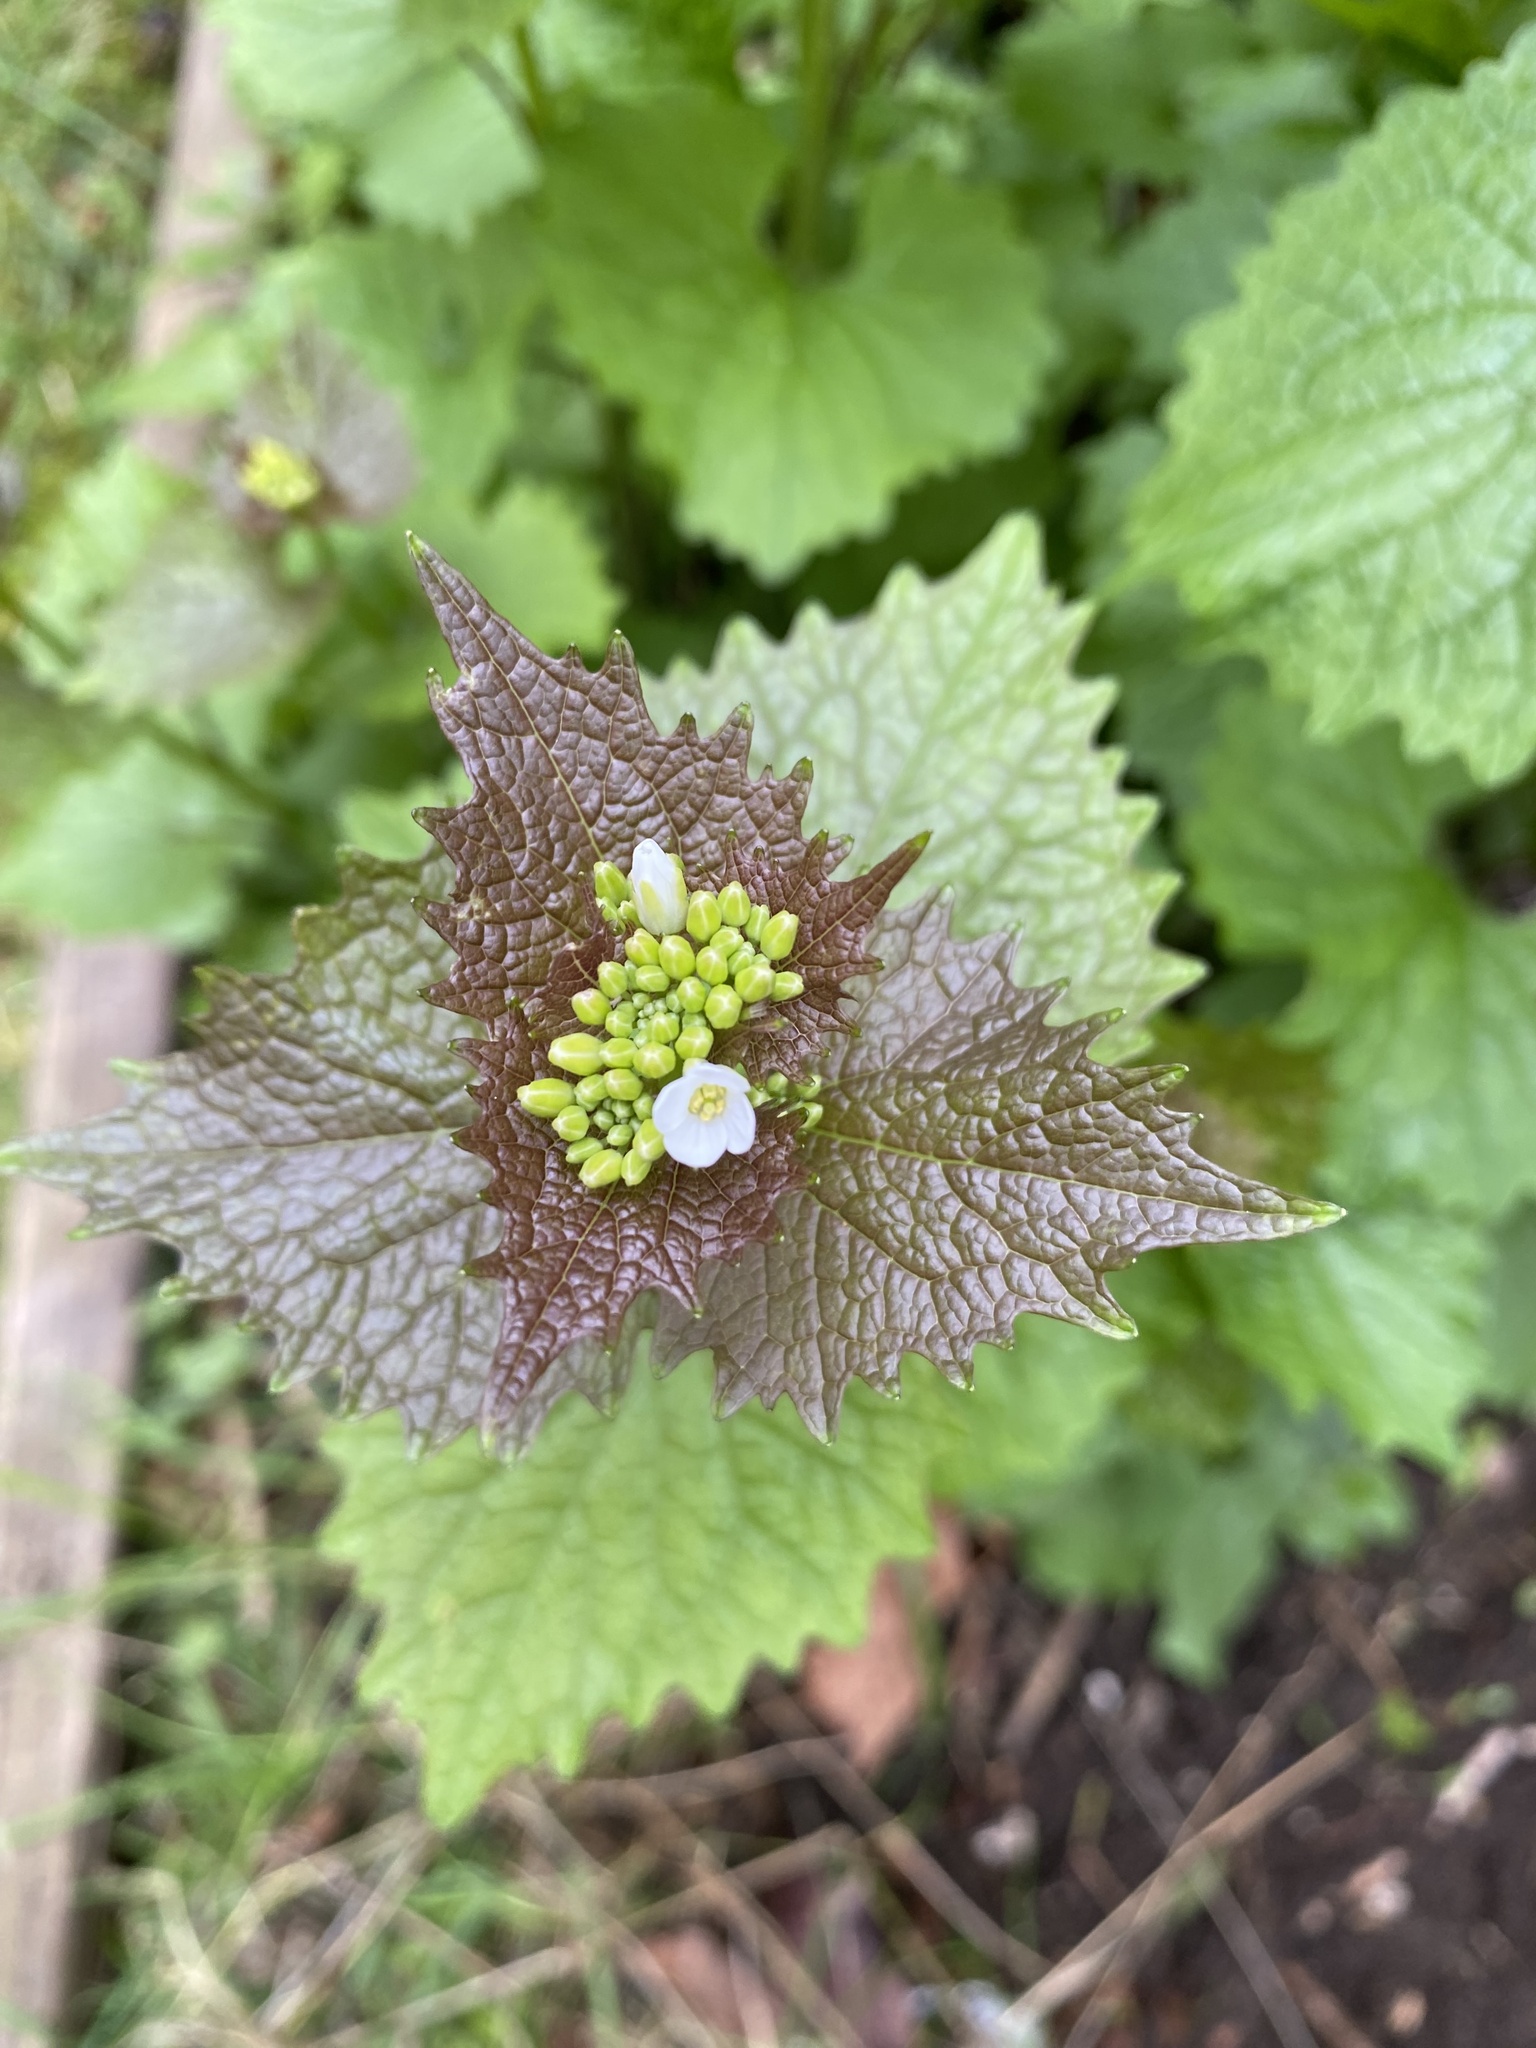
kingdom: Plantae
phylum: Tracheophyta
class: Magnoliopsida
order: Brassicales
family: Brassicaceae
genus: Alliaria
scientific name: Alliaria petiolata
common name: Garlic mustard
